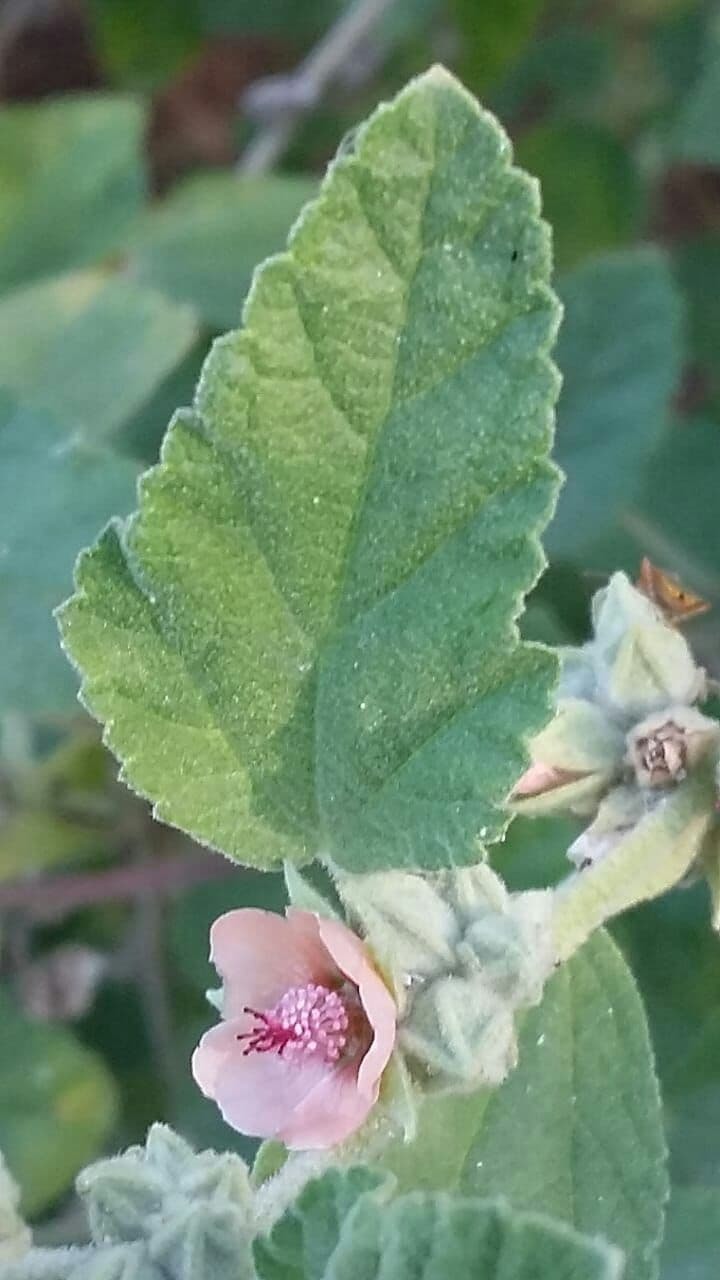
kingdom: Plantae
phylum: Tracheophyta
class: Magnoliopsida
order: Malvales
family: Malvaceae
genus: Sphaeralcea
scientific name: Sphaeralcea bonariensis
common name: Latin globemallow
